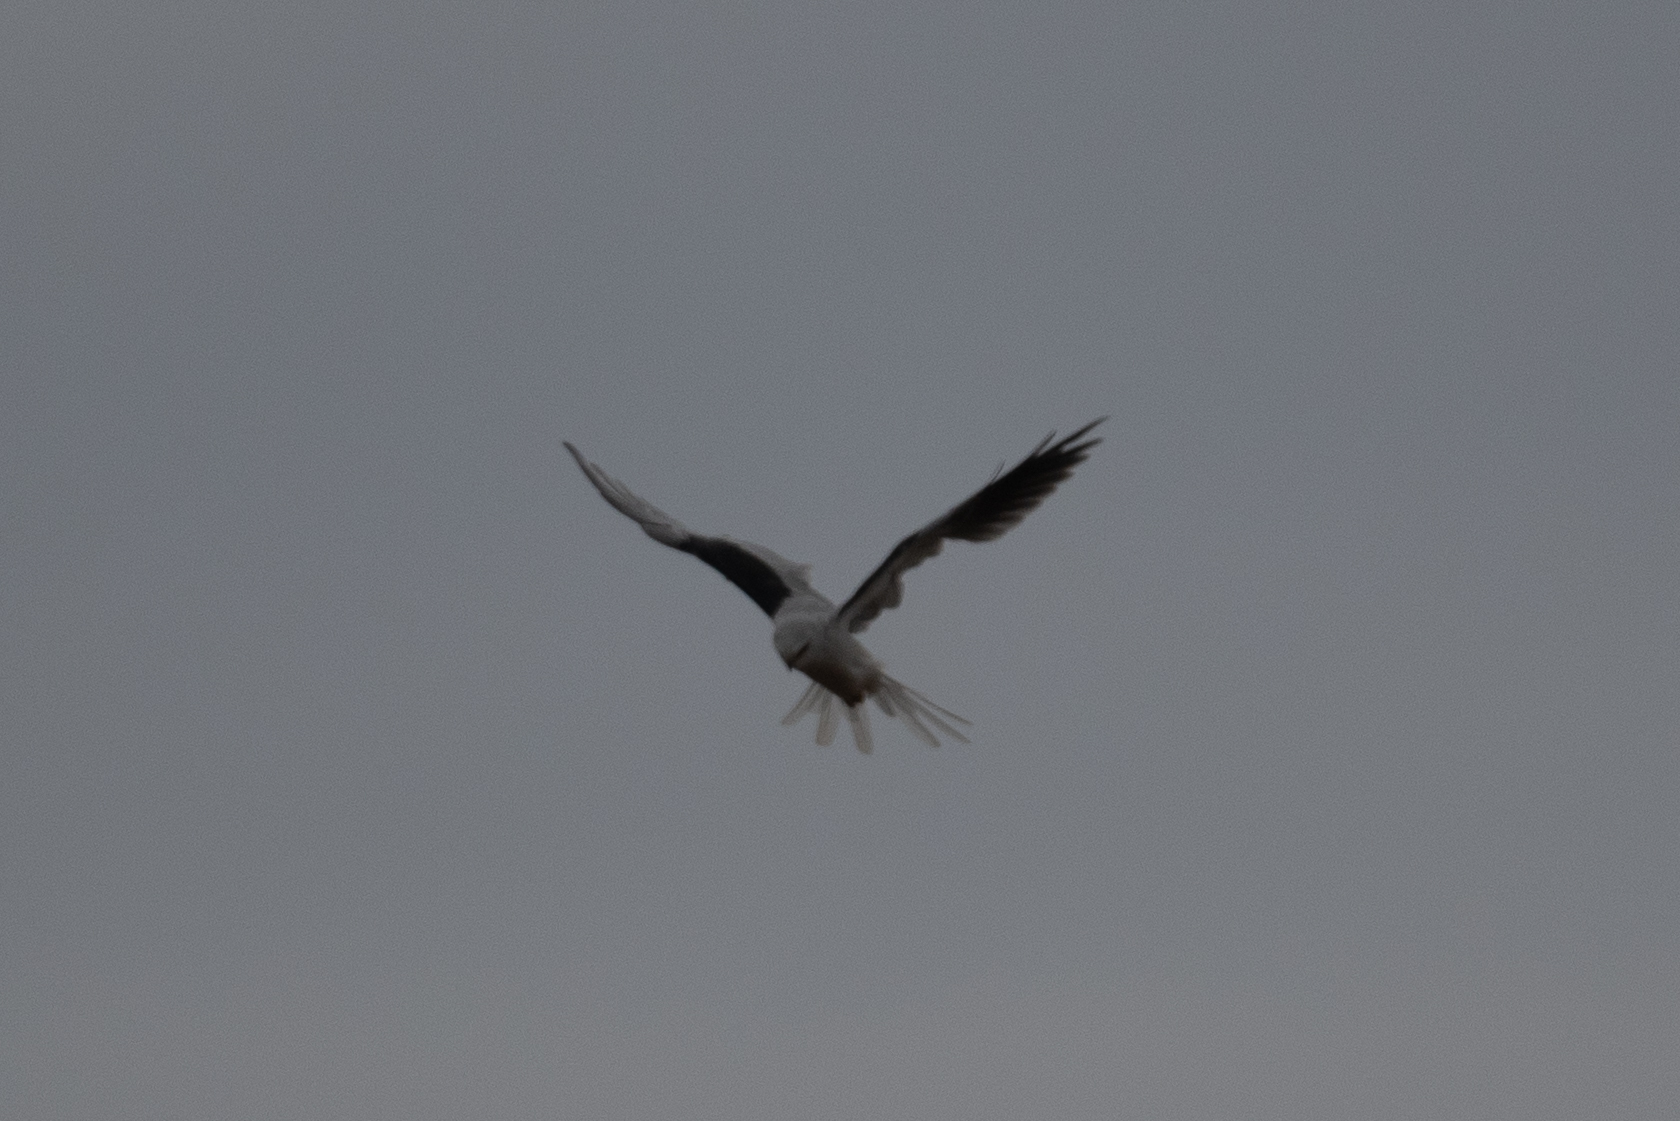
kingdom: Animalia
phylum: Chordata
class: Aves
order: Accipitriformes
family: Accipitridae
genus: Elanus
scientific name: Elanus leucurus
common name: White-tailed kite
